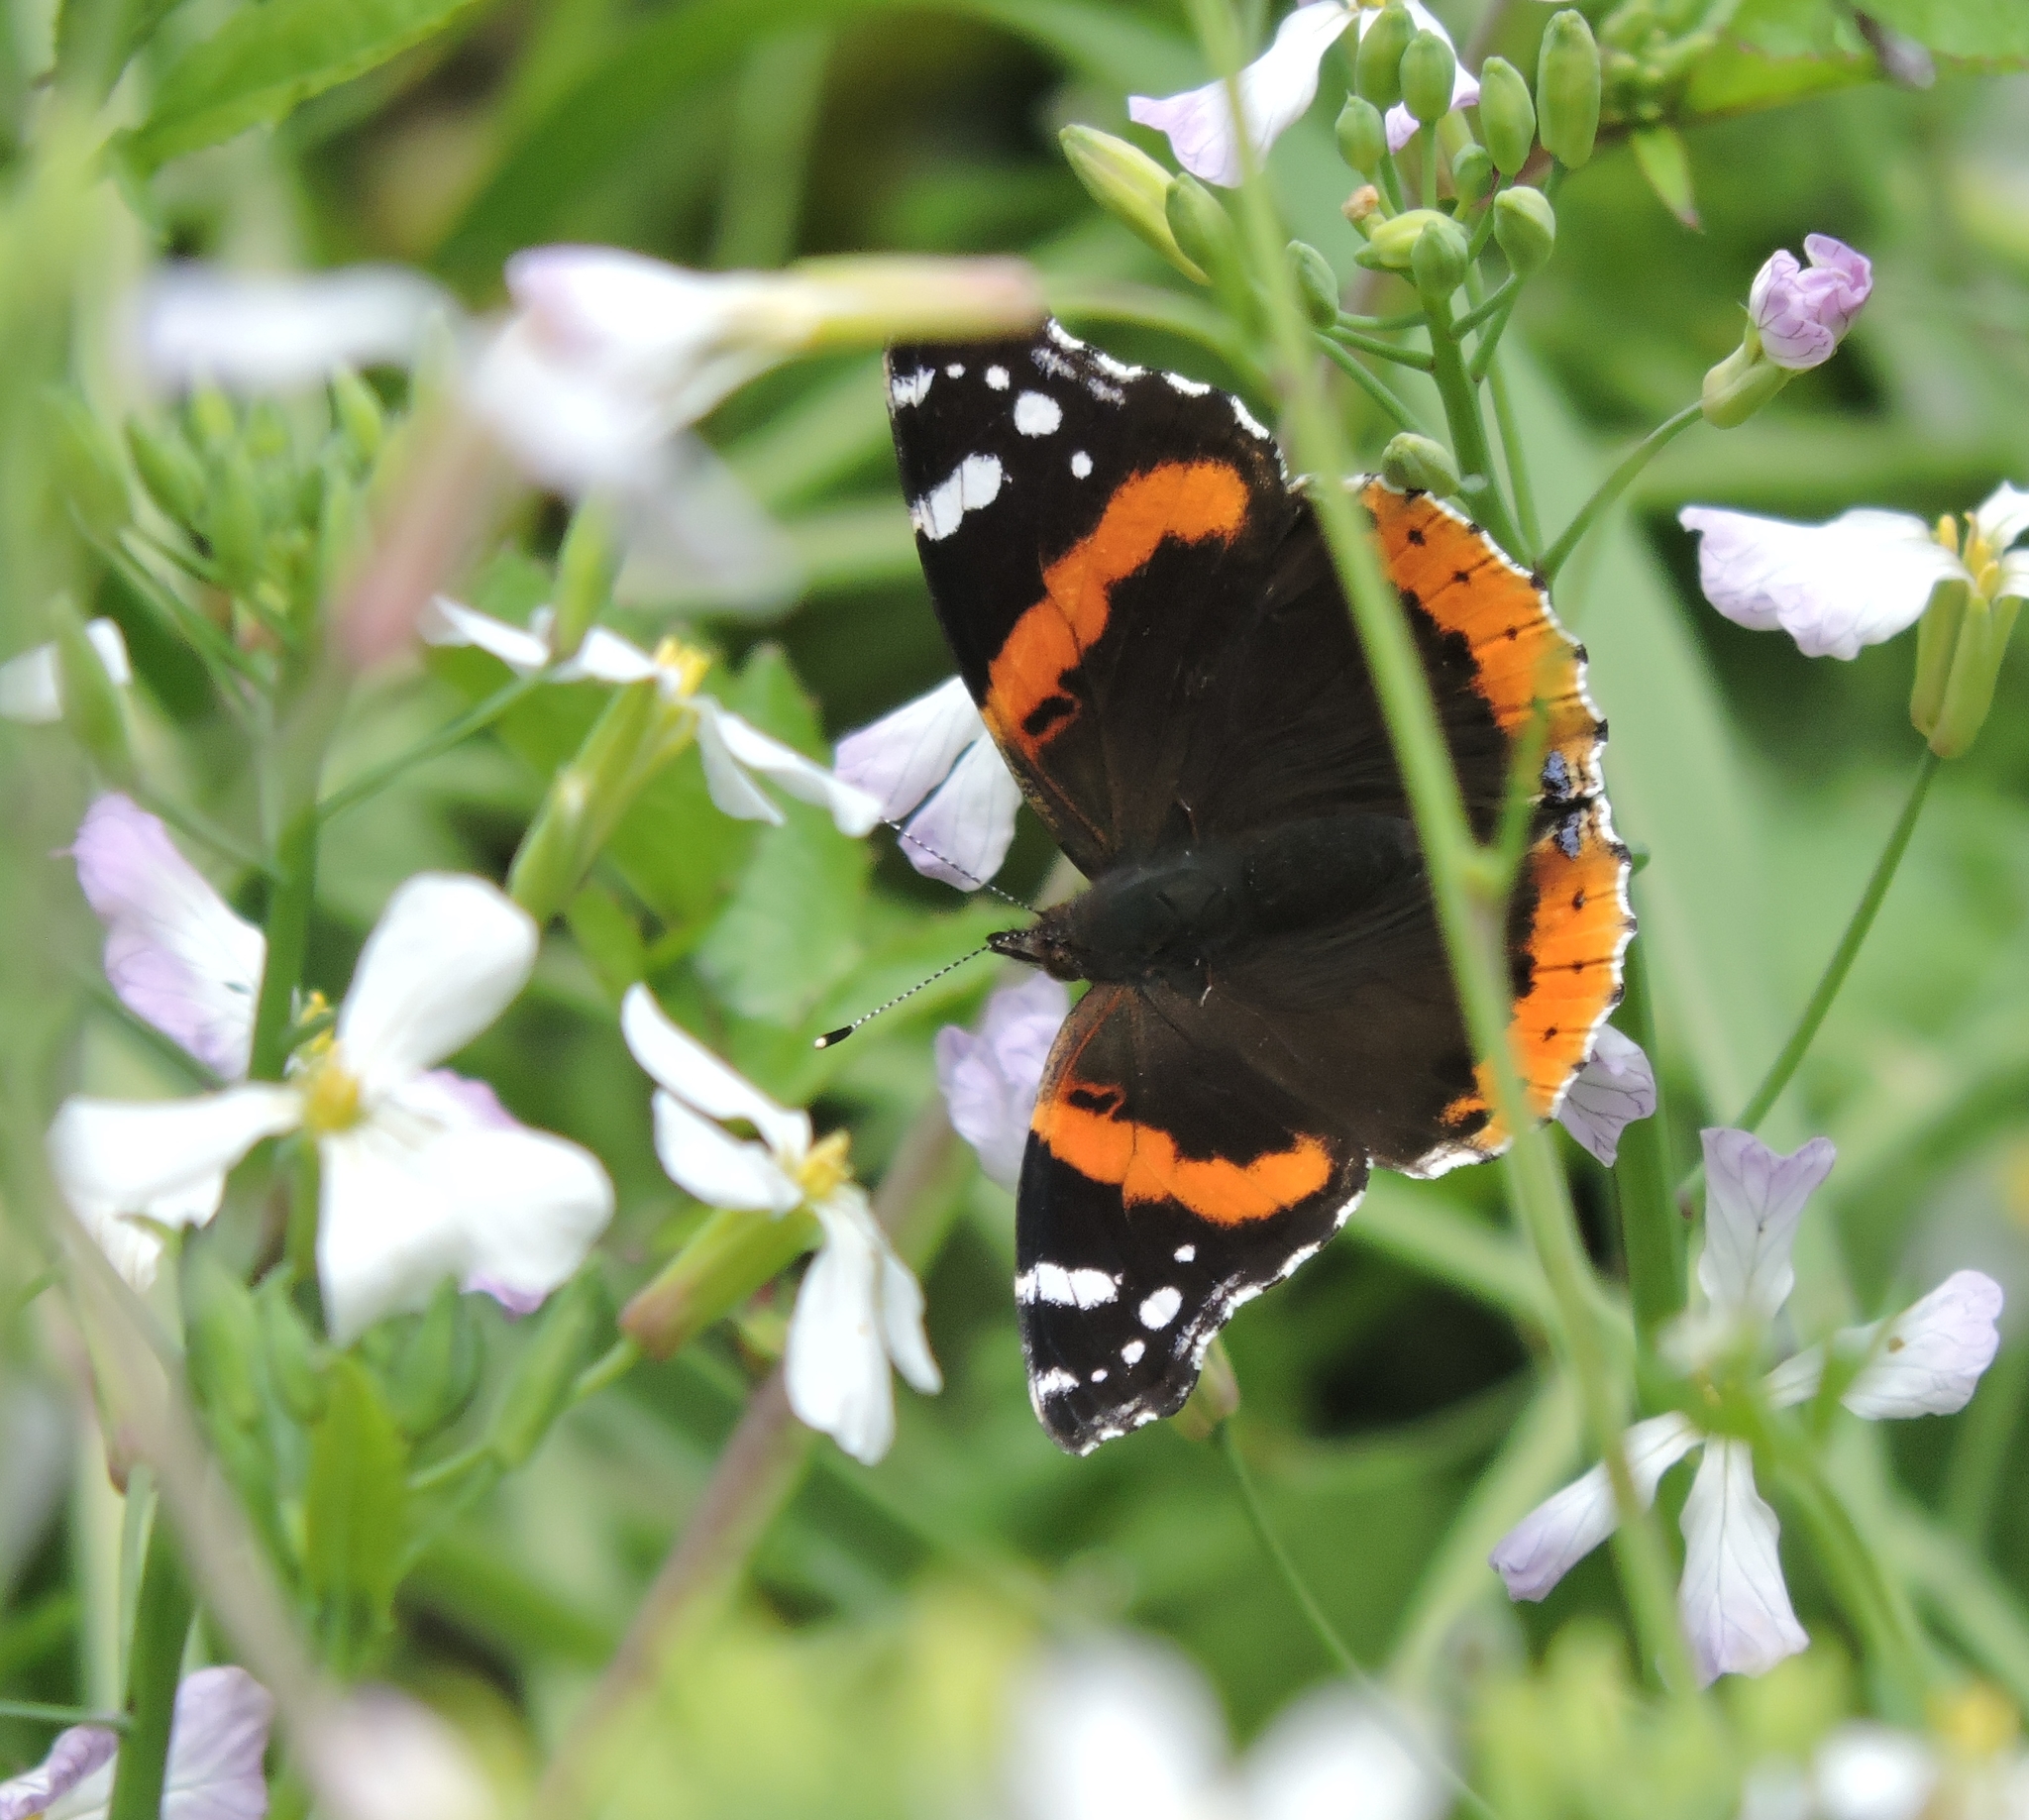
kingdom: Animalia
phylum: Arthropoda
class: Insecta
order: Lepidoptera
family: Nymphalidae
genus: Vanessa
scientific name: Vanessa atalanta
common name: Red admiral
